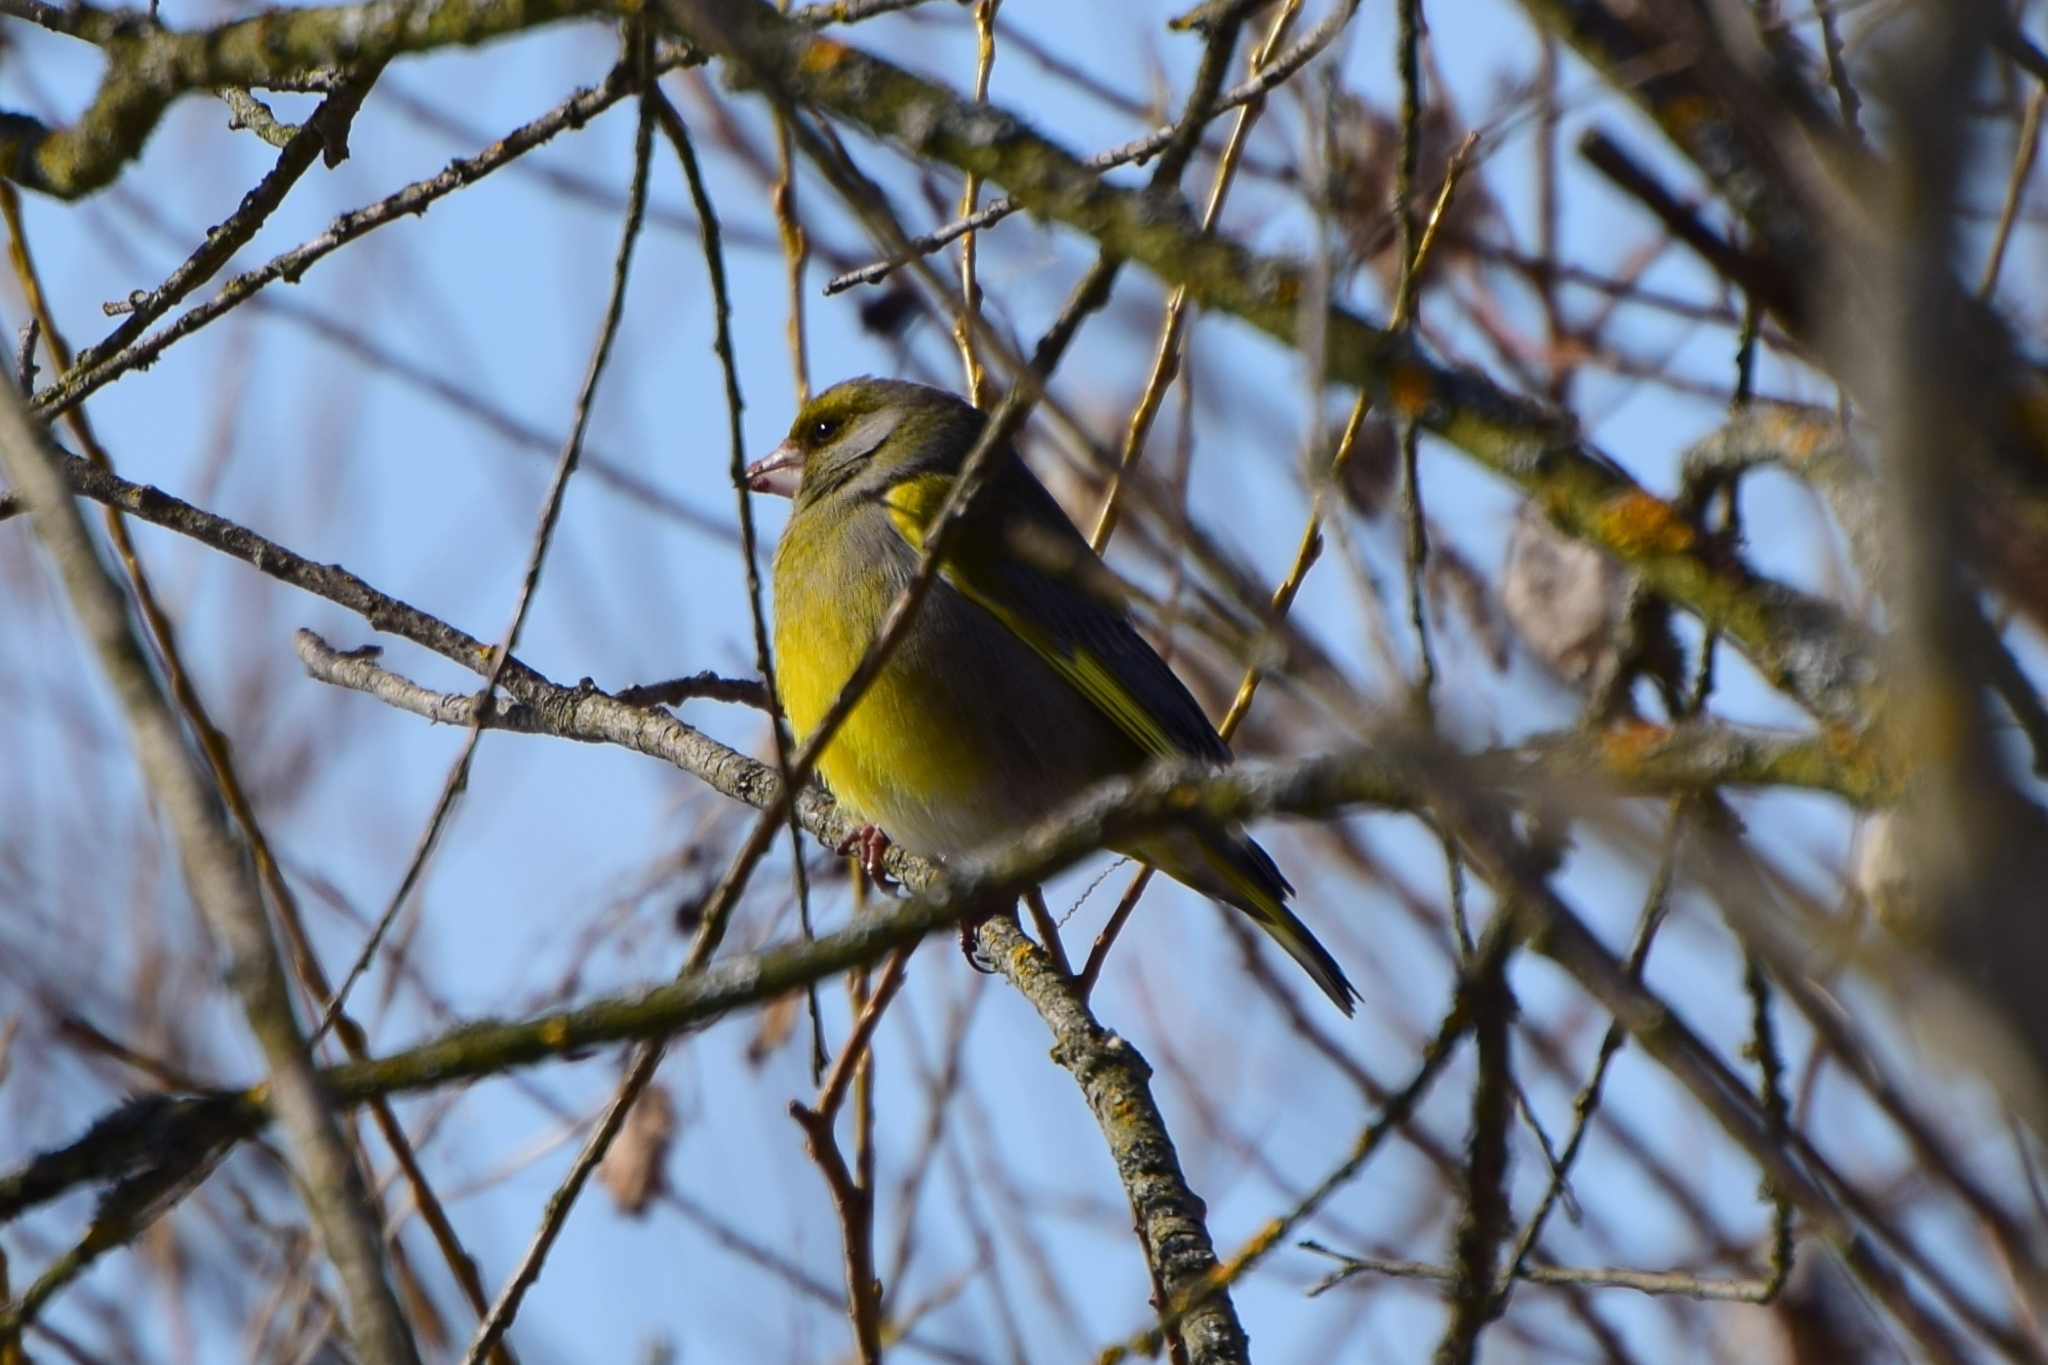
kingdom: Plantae
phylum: Tracheophyta
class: Liliopsida
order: Poales
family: Poaceae
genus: Chloris
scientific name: Chloris chloris
